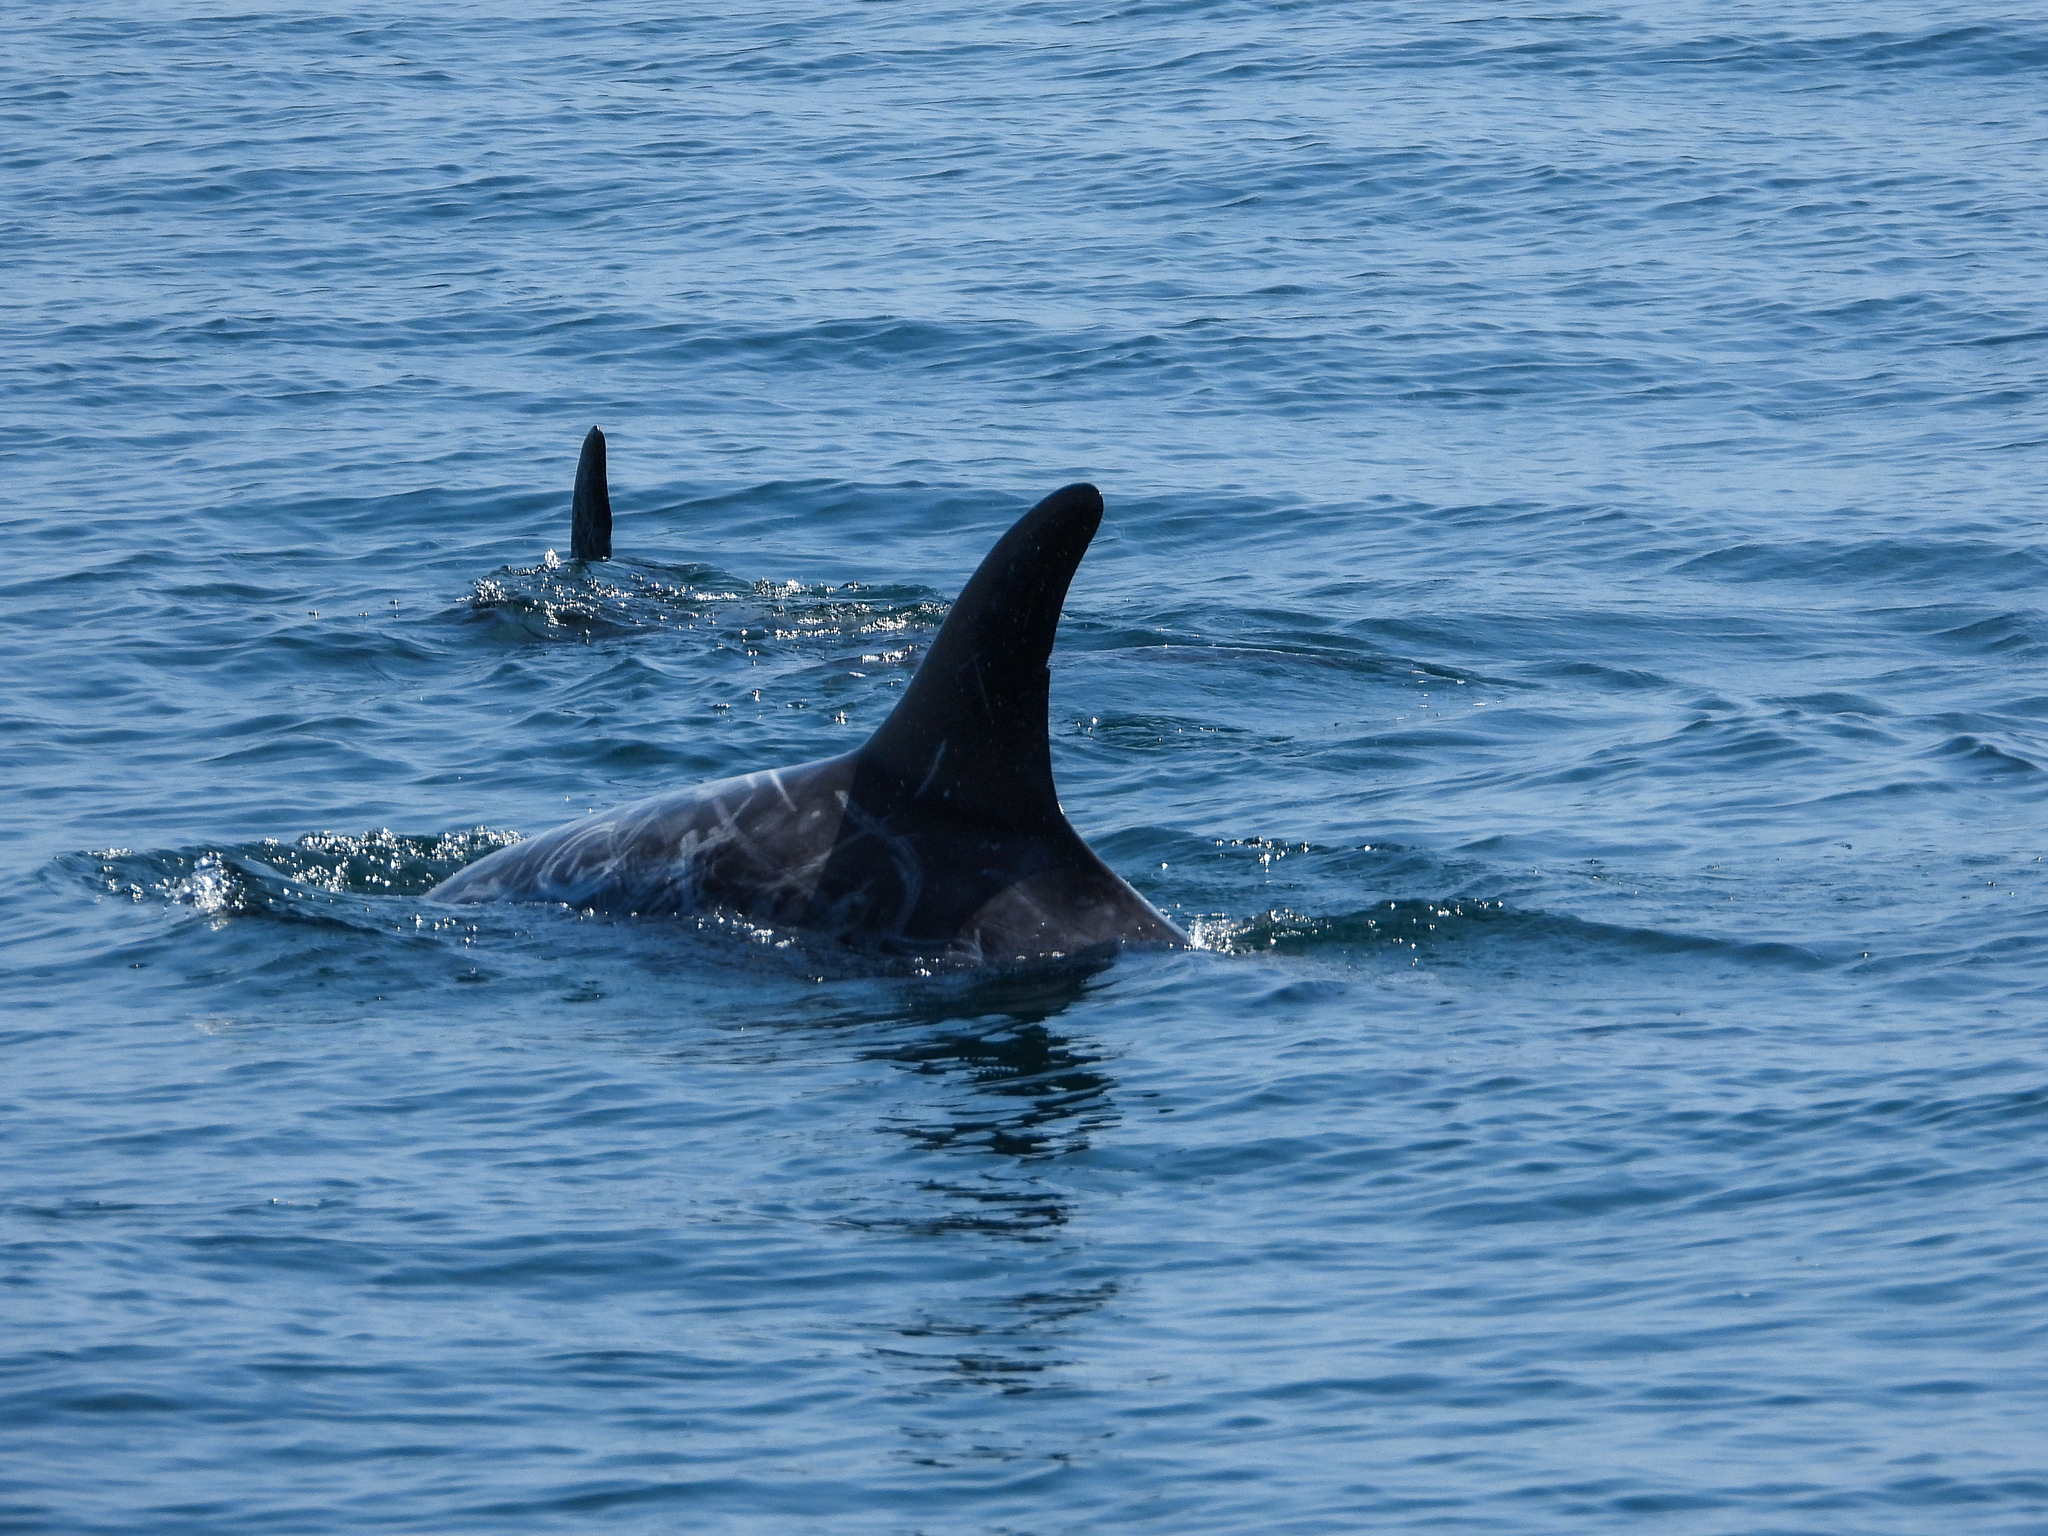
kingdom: Animalia
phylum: Chordata
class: Mammalia
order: Cetacea
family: Delphinidae
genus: Grampus
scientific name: Grampus griseus
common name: Risso's dolphin
